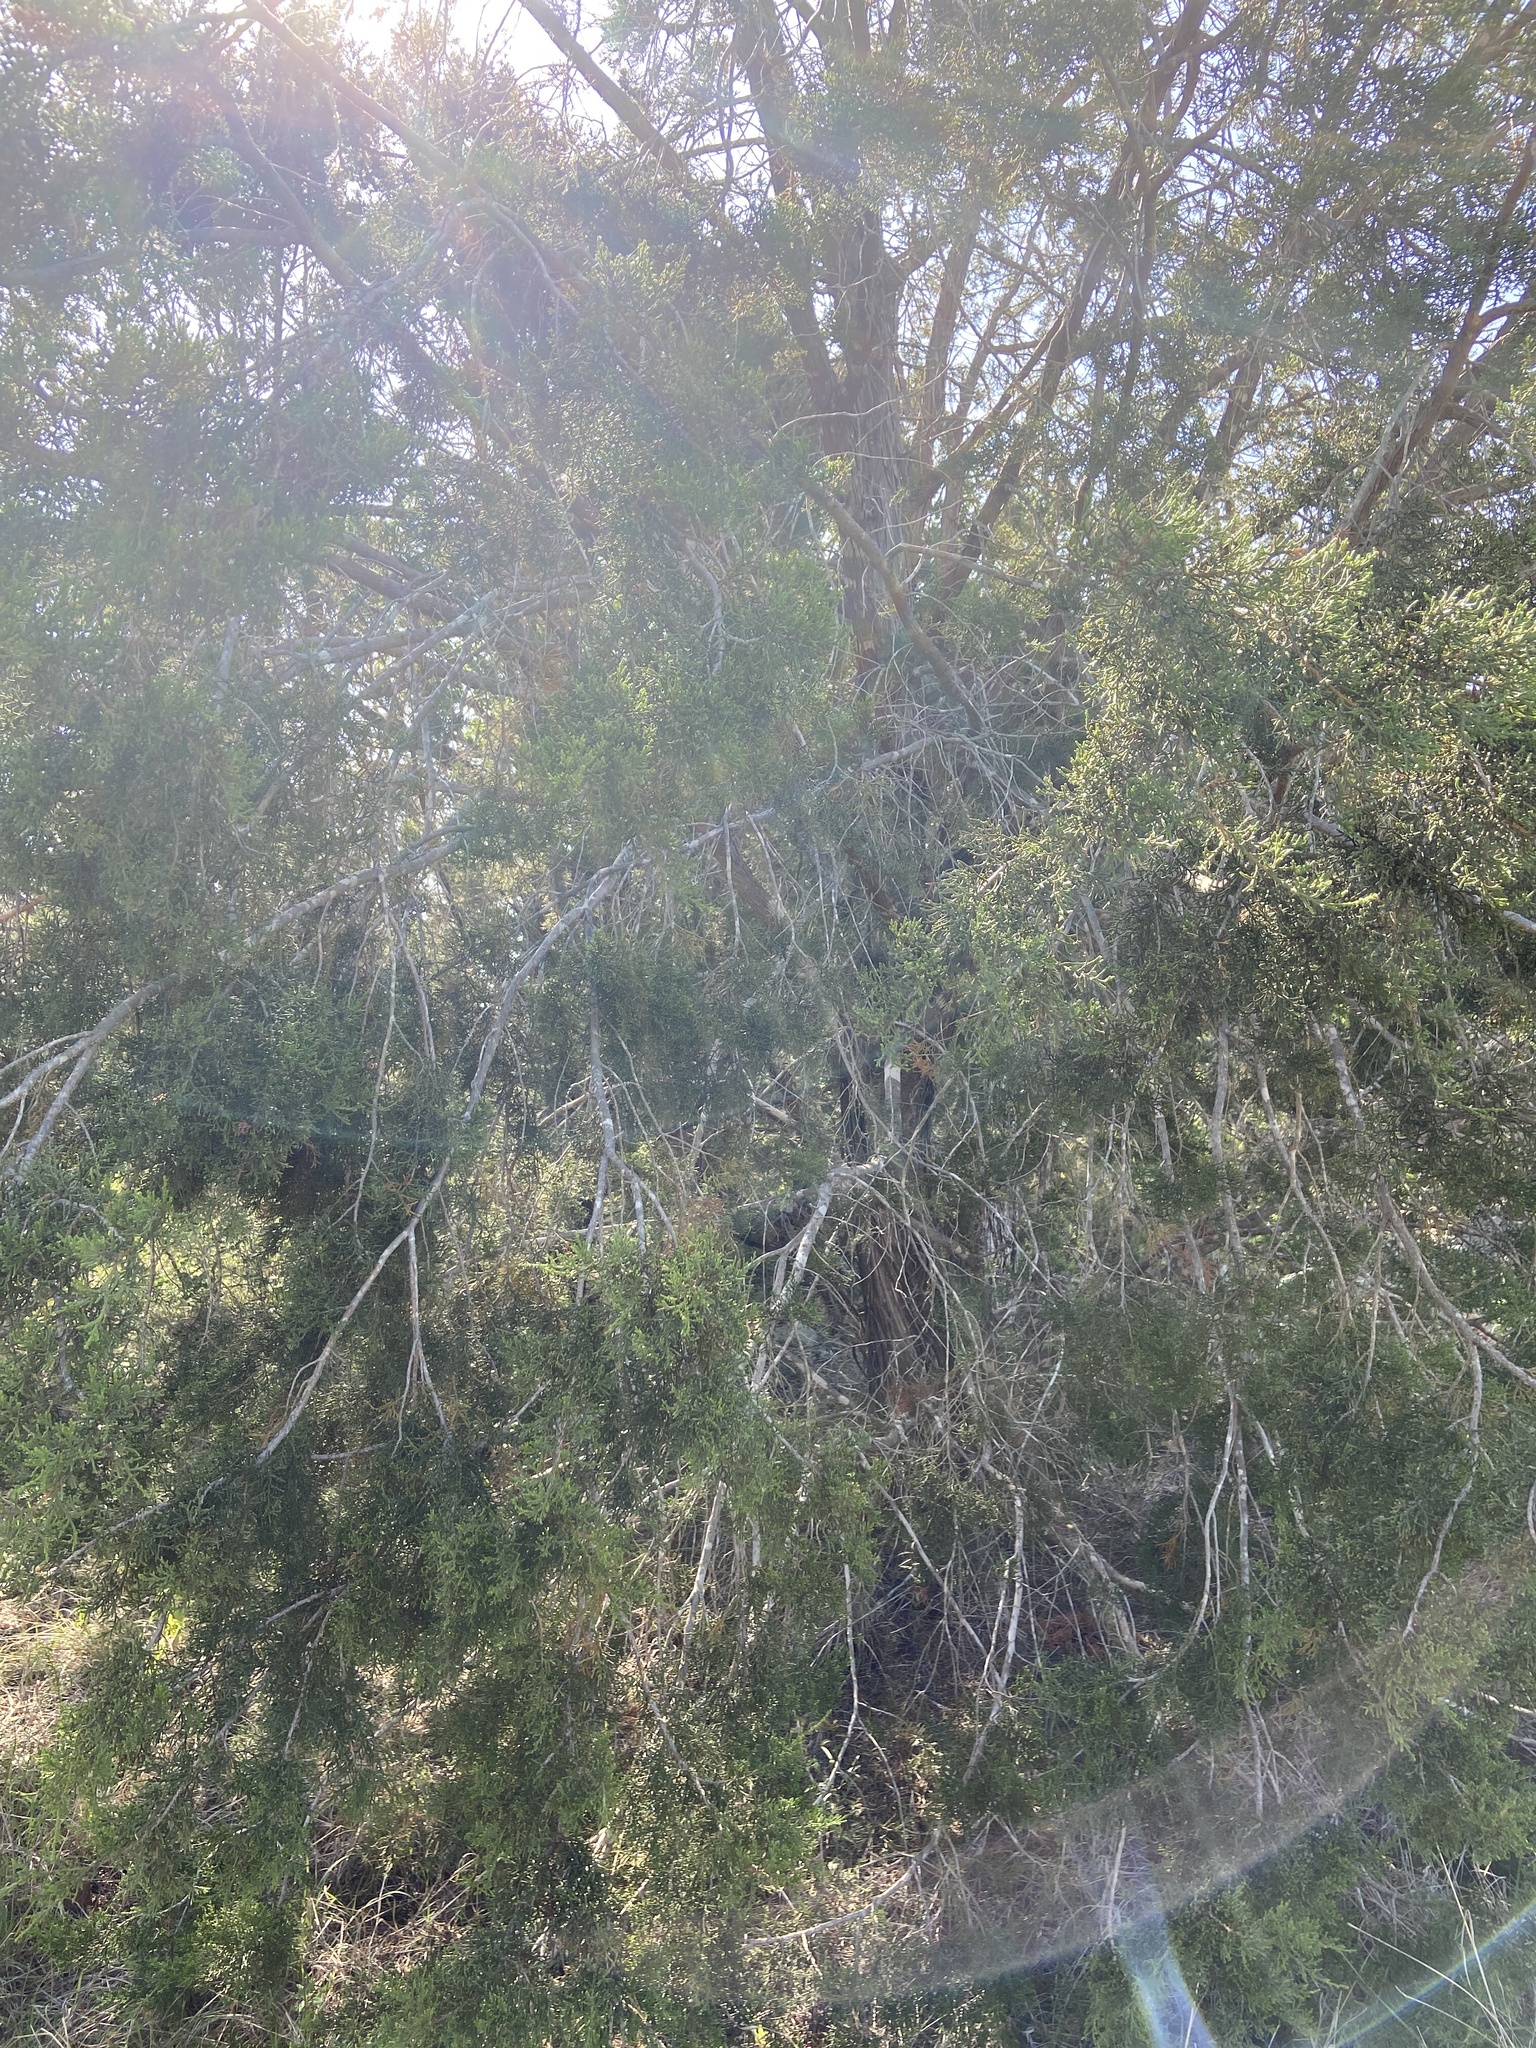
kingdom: Plantae
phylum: Tracheophyta
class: Pinopsida
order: Pinales
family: Cupressaceae
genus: Juniperus
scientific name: Juniperus ashei
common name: Mexican juniper
